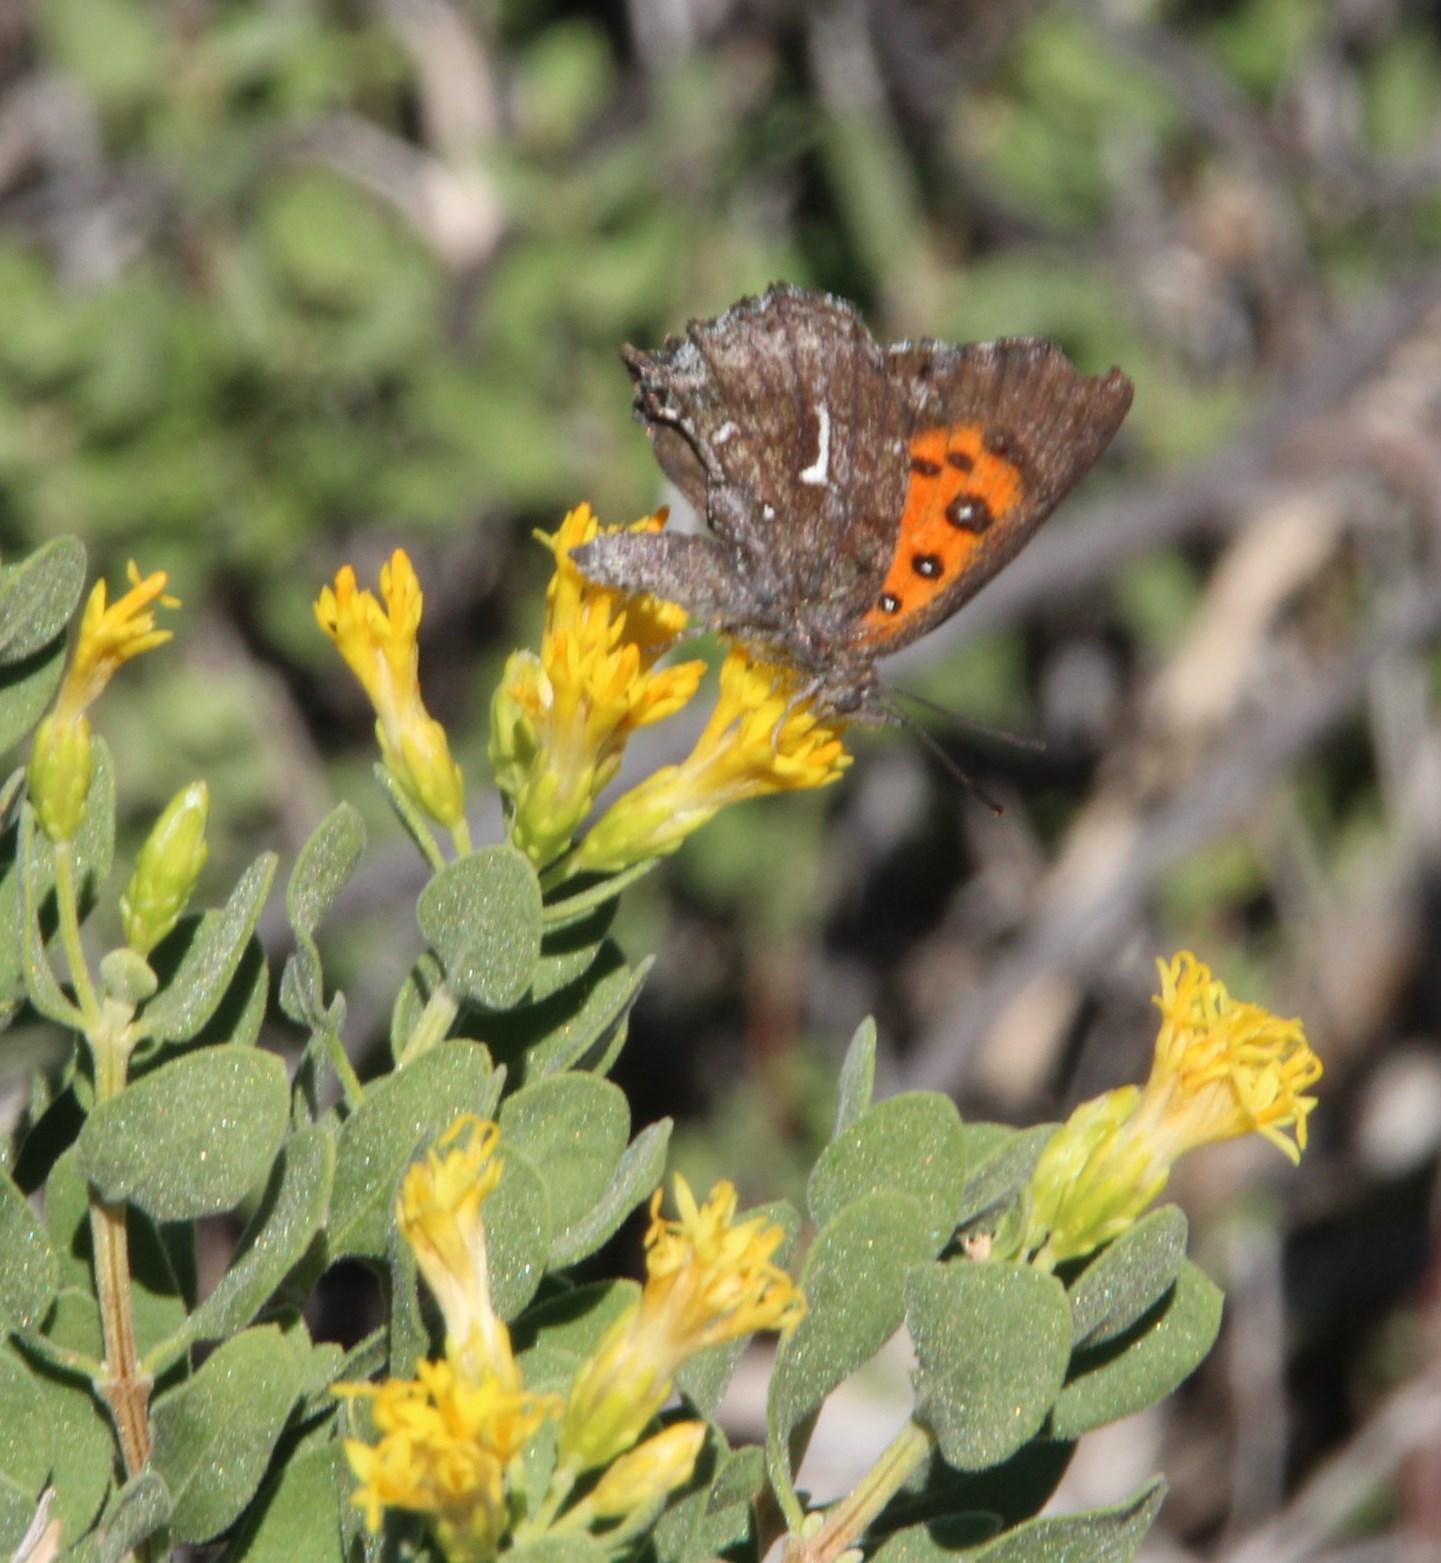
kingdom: Animalia
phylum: Arthropoda
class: Insecta
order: Lepidoptera
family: Lycaenidae
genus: Phasis
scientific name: Phasis clavum
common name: Namaqua arrowhead
